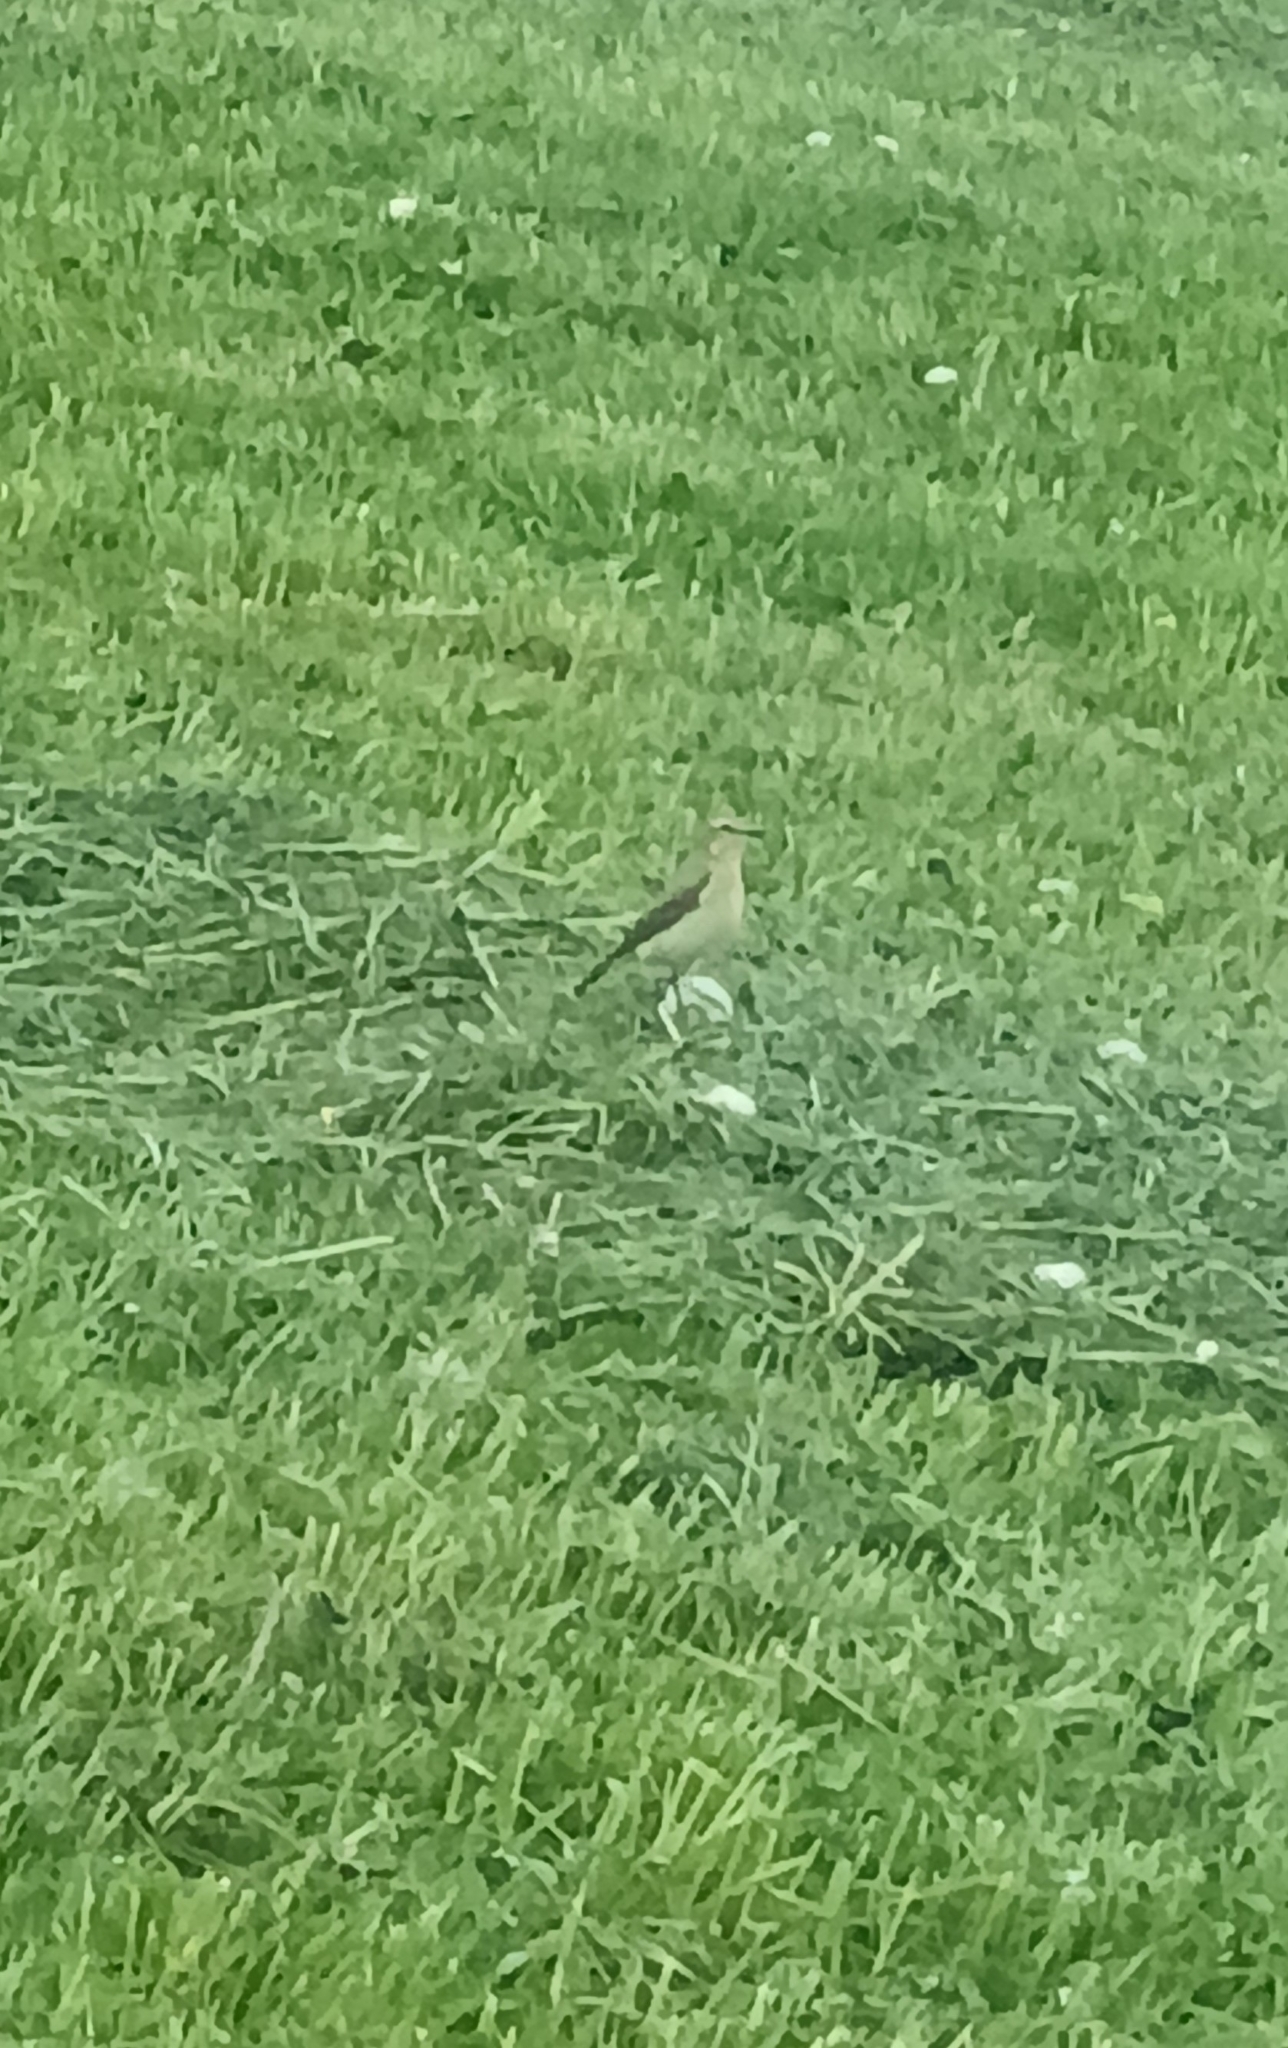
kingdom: Animalia
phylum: Chordata
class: Aves
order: Passeriformes
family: Muscicapidae
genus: Oenanthe
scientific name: Oenanthe oenanthe
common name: Northern wheatear
